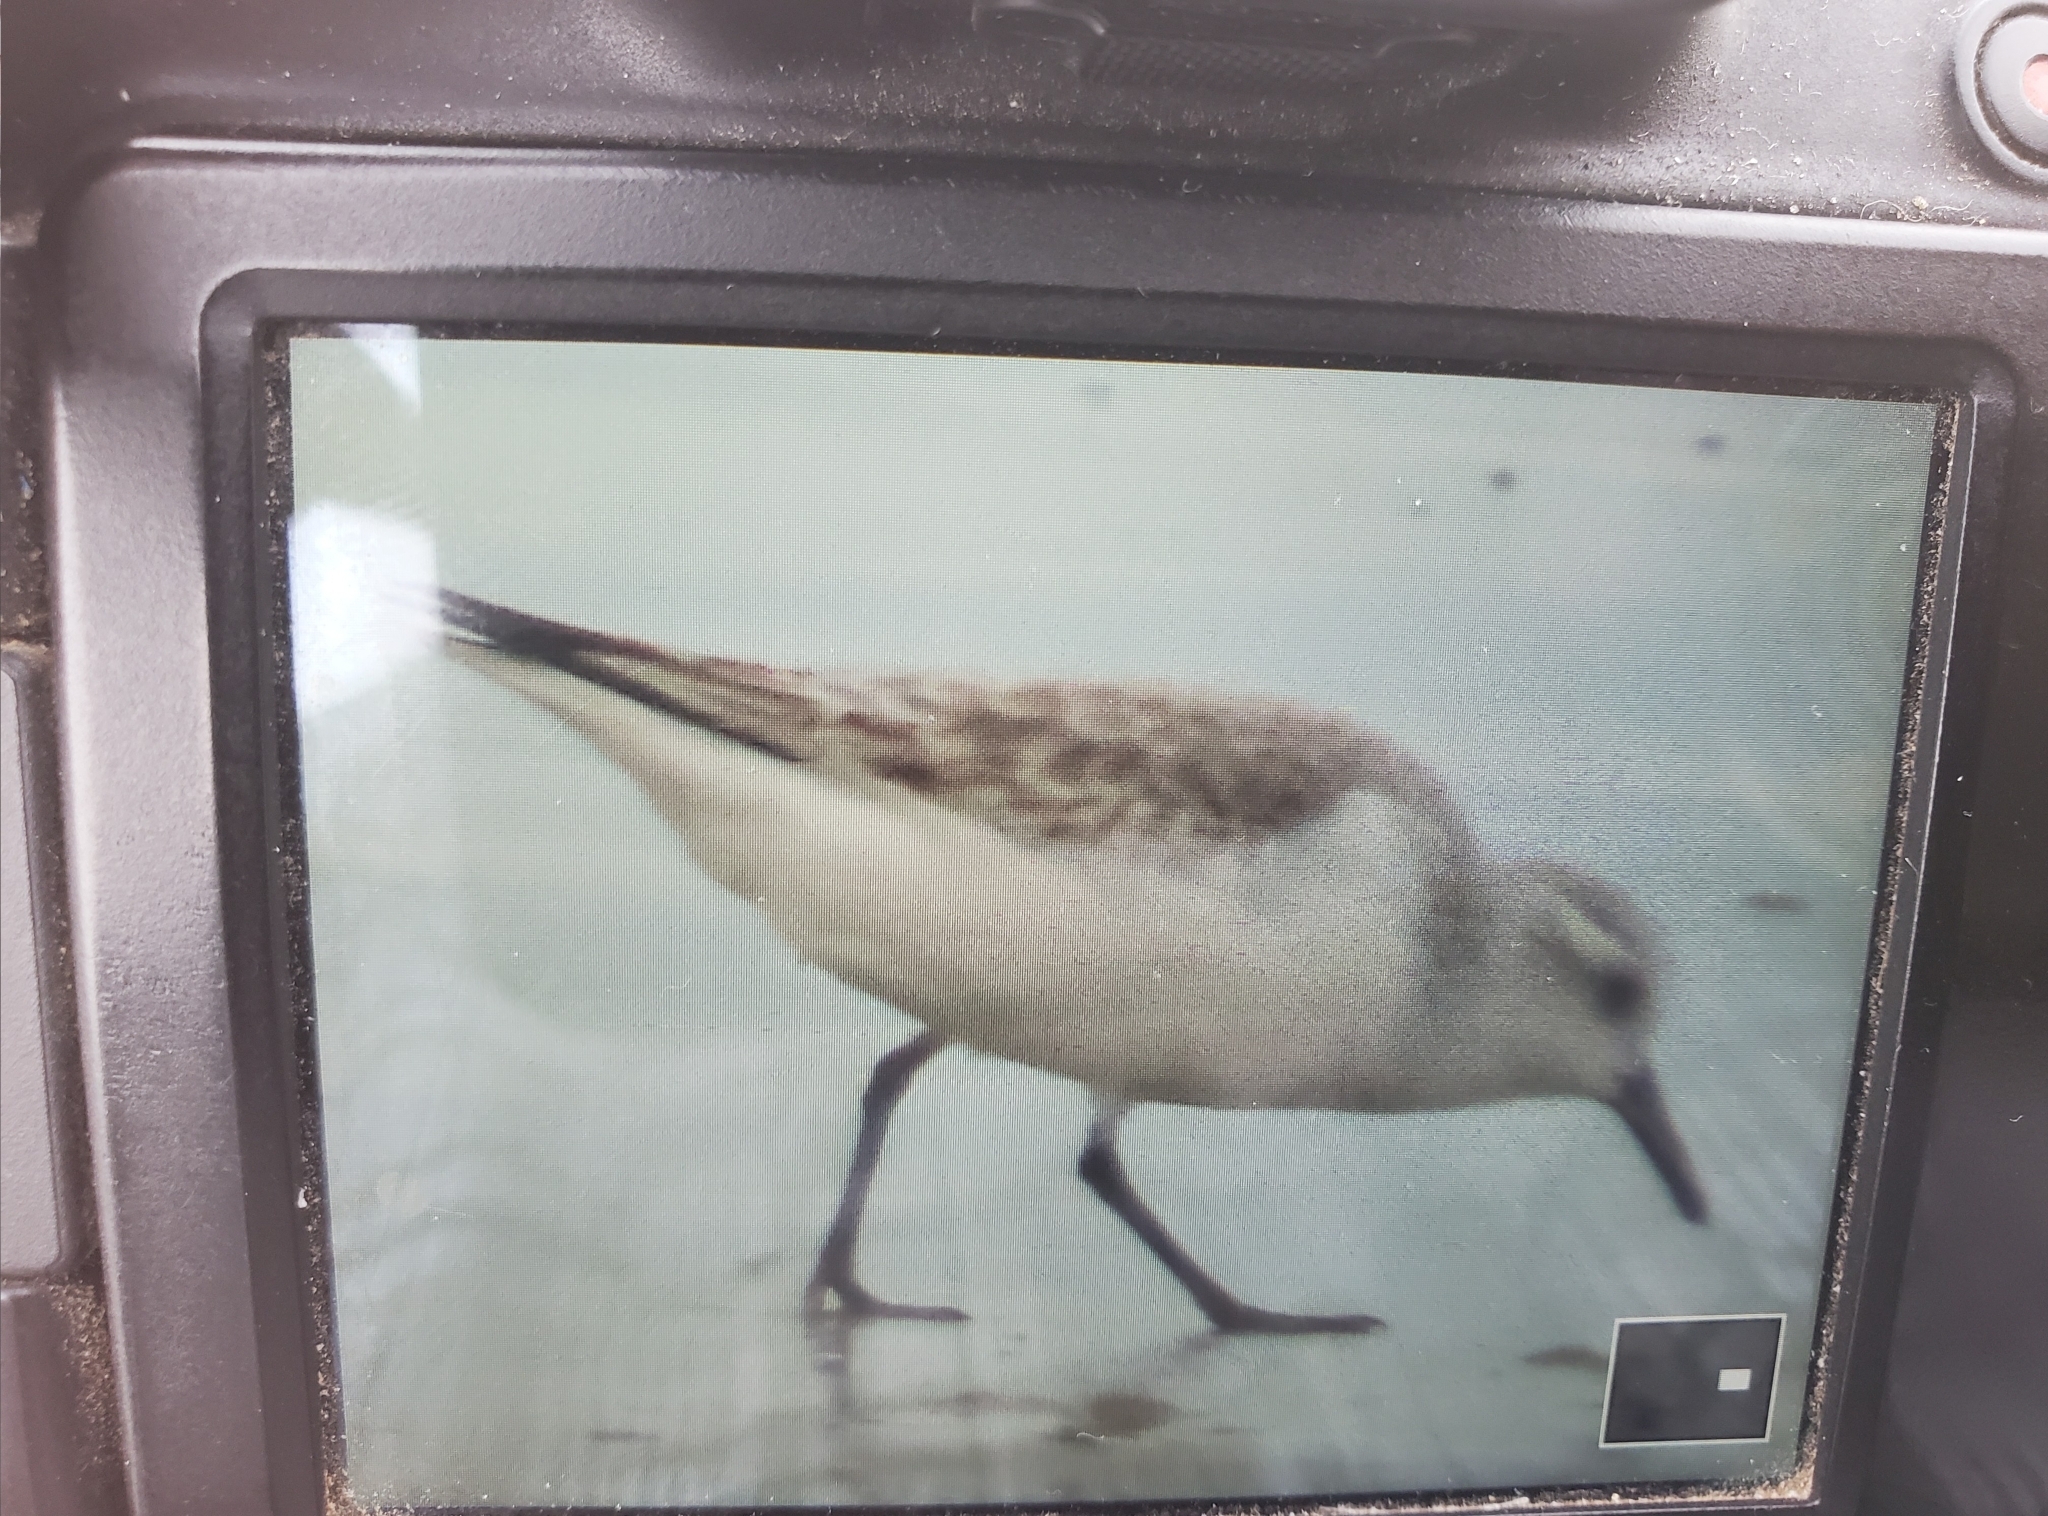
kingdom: Animalia
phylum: Chordata
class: Aves
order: Charadriiformes
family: Scolopacidae
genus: Calidris
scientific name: Calidris alba
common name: Sanderling
